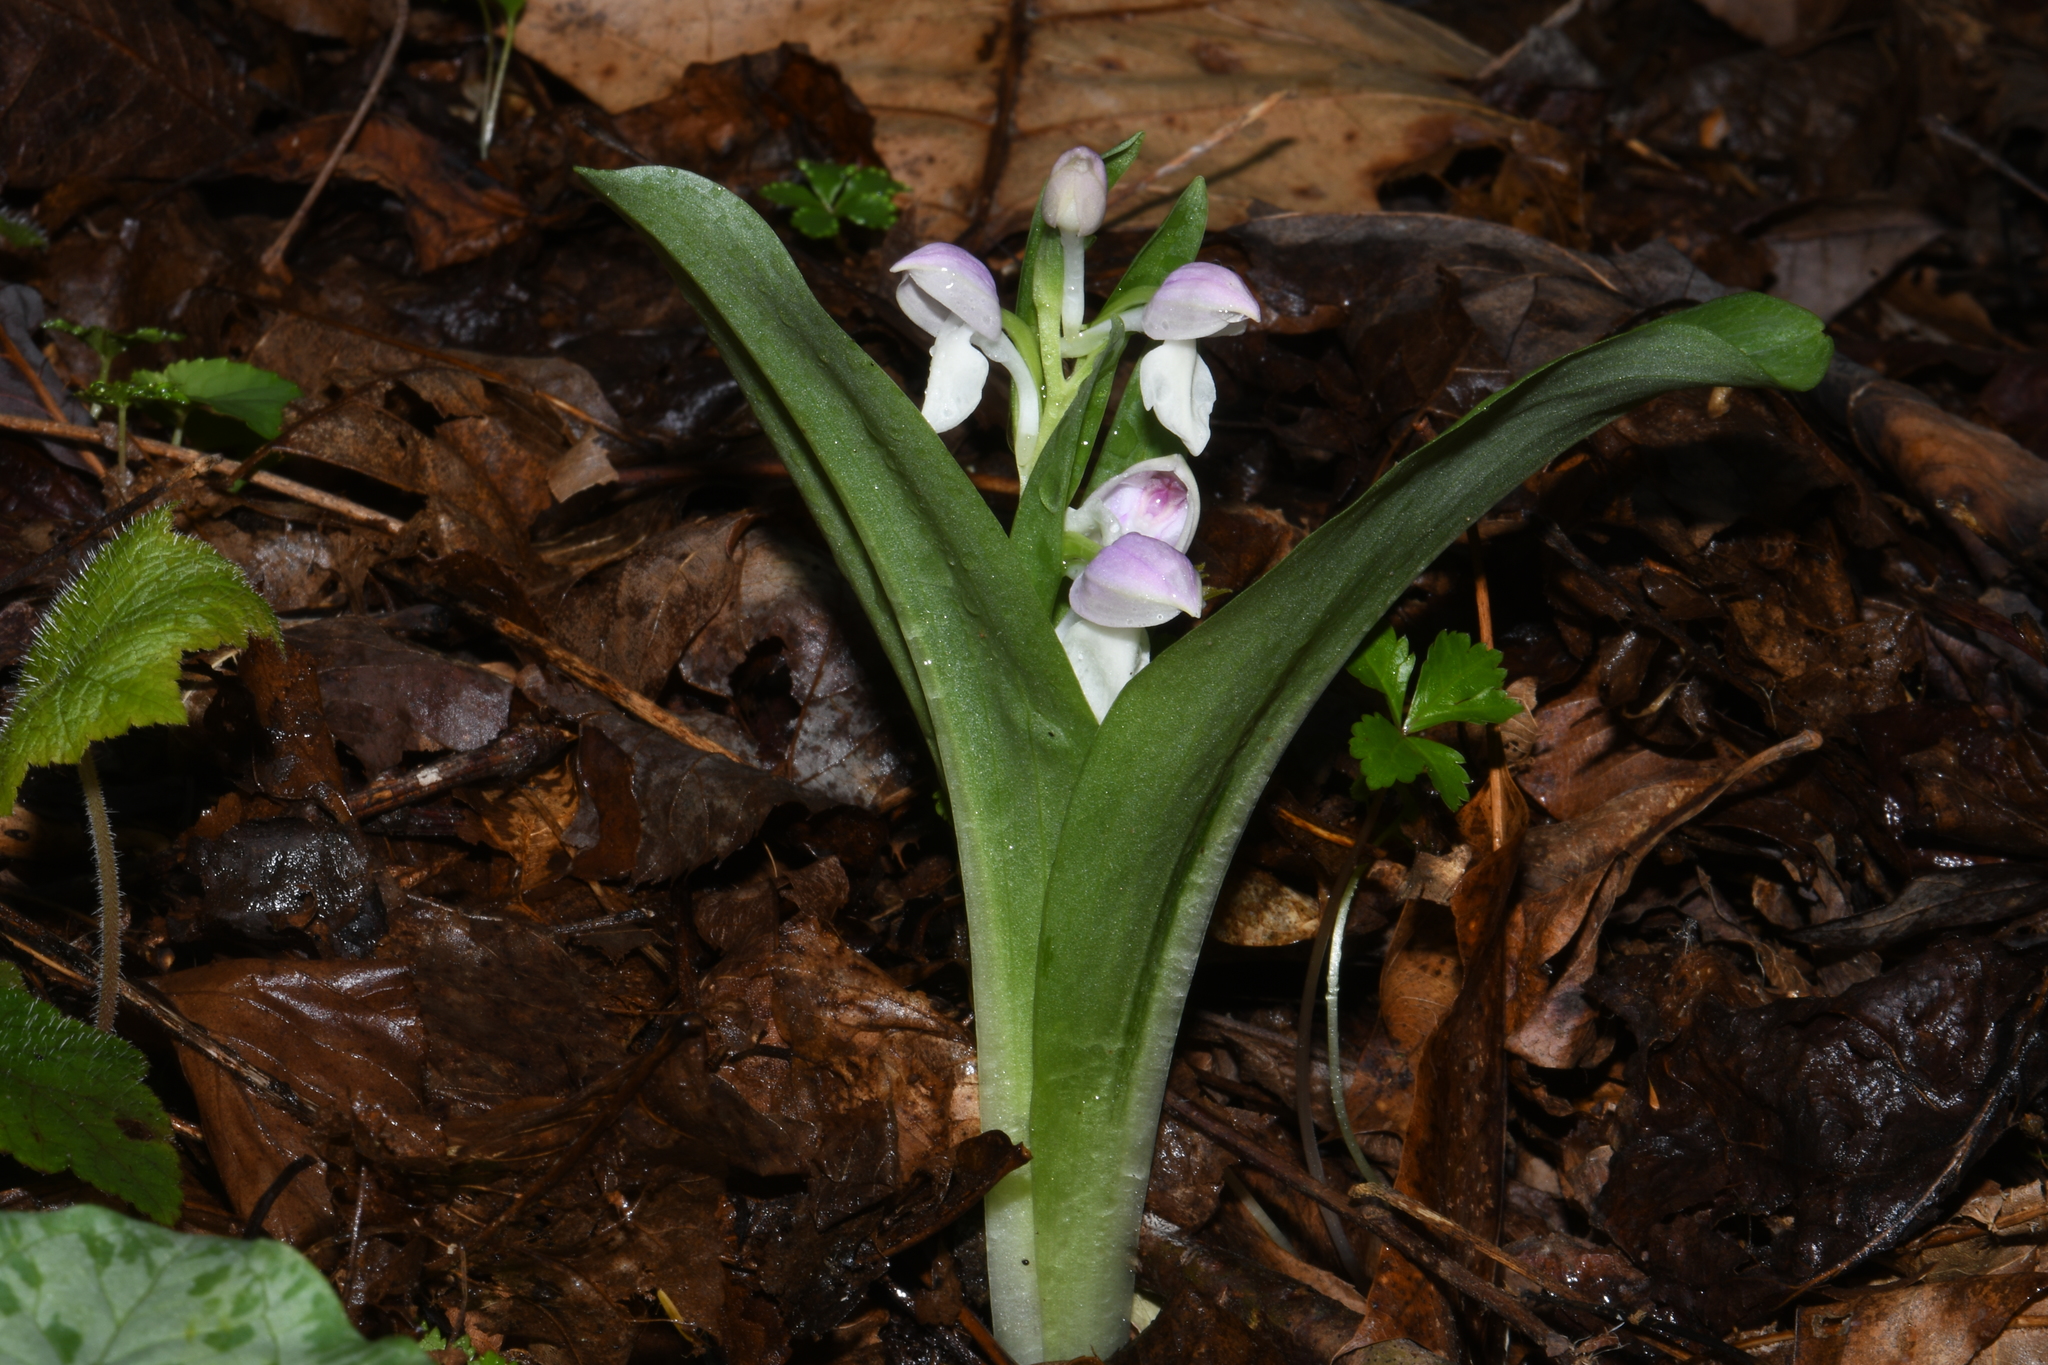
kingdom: Plantae
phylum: Tracheophyta
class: Liliopsida
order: Asparagales
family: Orchidaceae
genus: Galearis
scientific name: Galearis spectabilis
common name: Purple-hooded orchis
